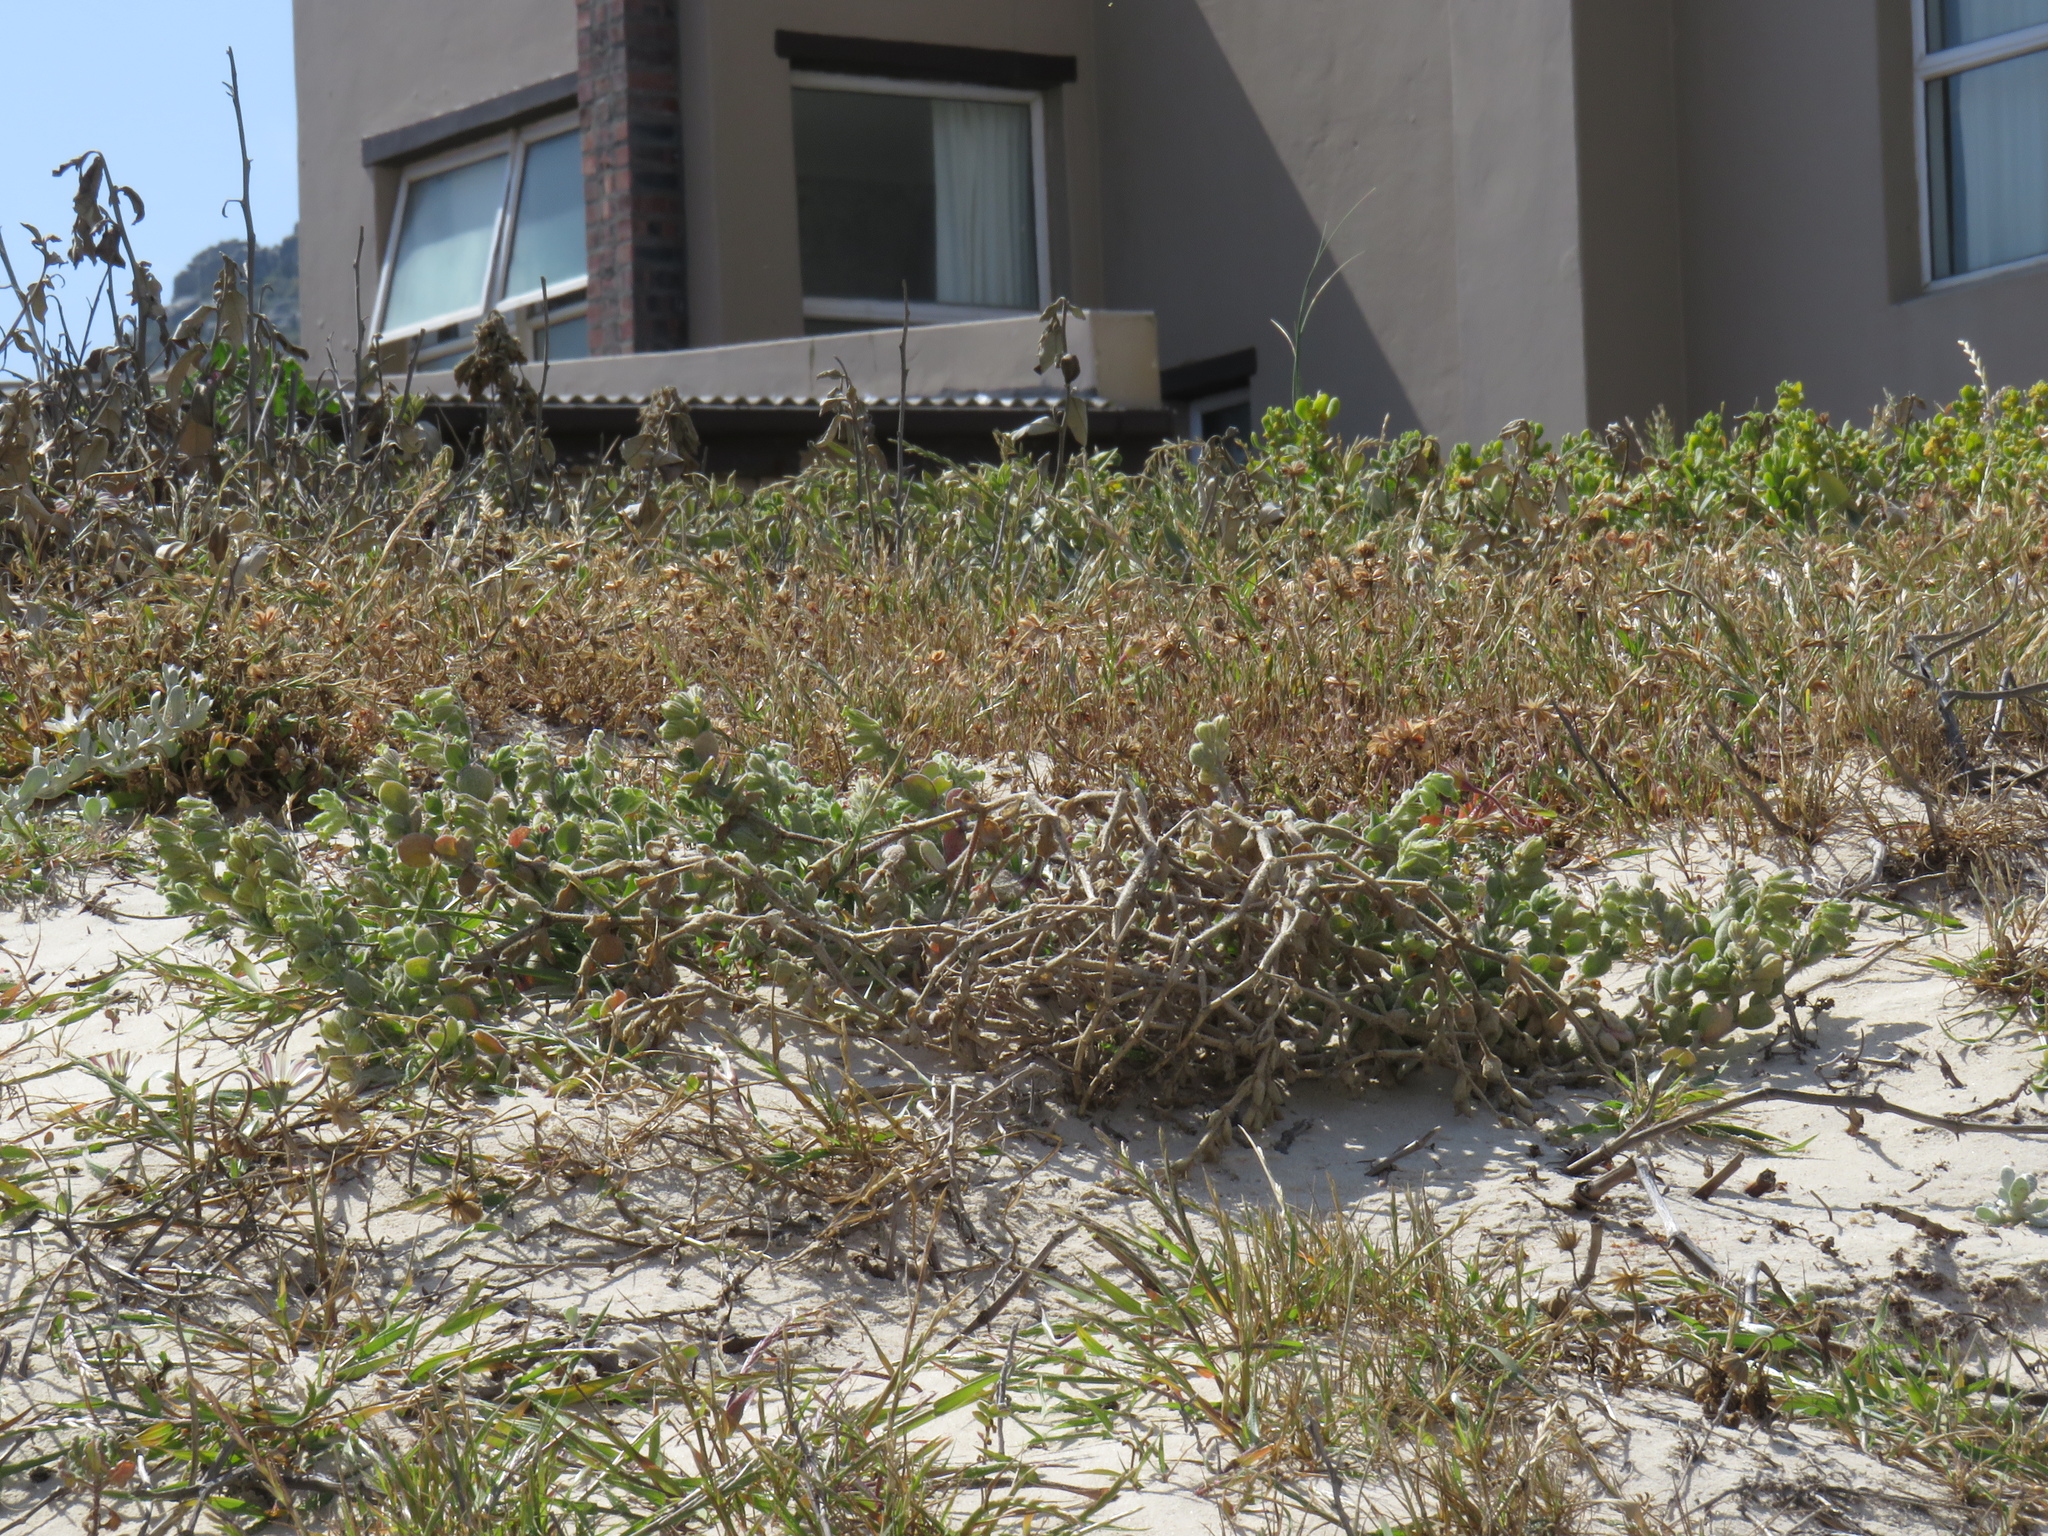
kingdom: Plantae
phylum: Tracheophyta
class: Magnoliopsida
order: Caryophyllales
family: Caryophyllaceae
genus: Silene
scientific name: Silene crassifolia
